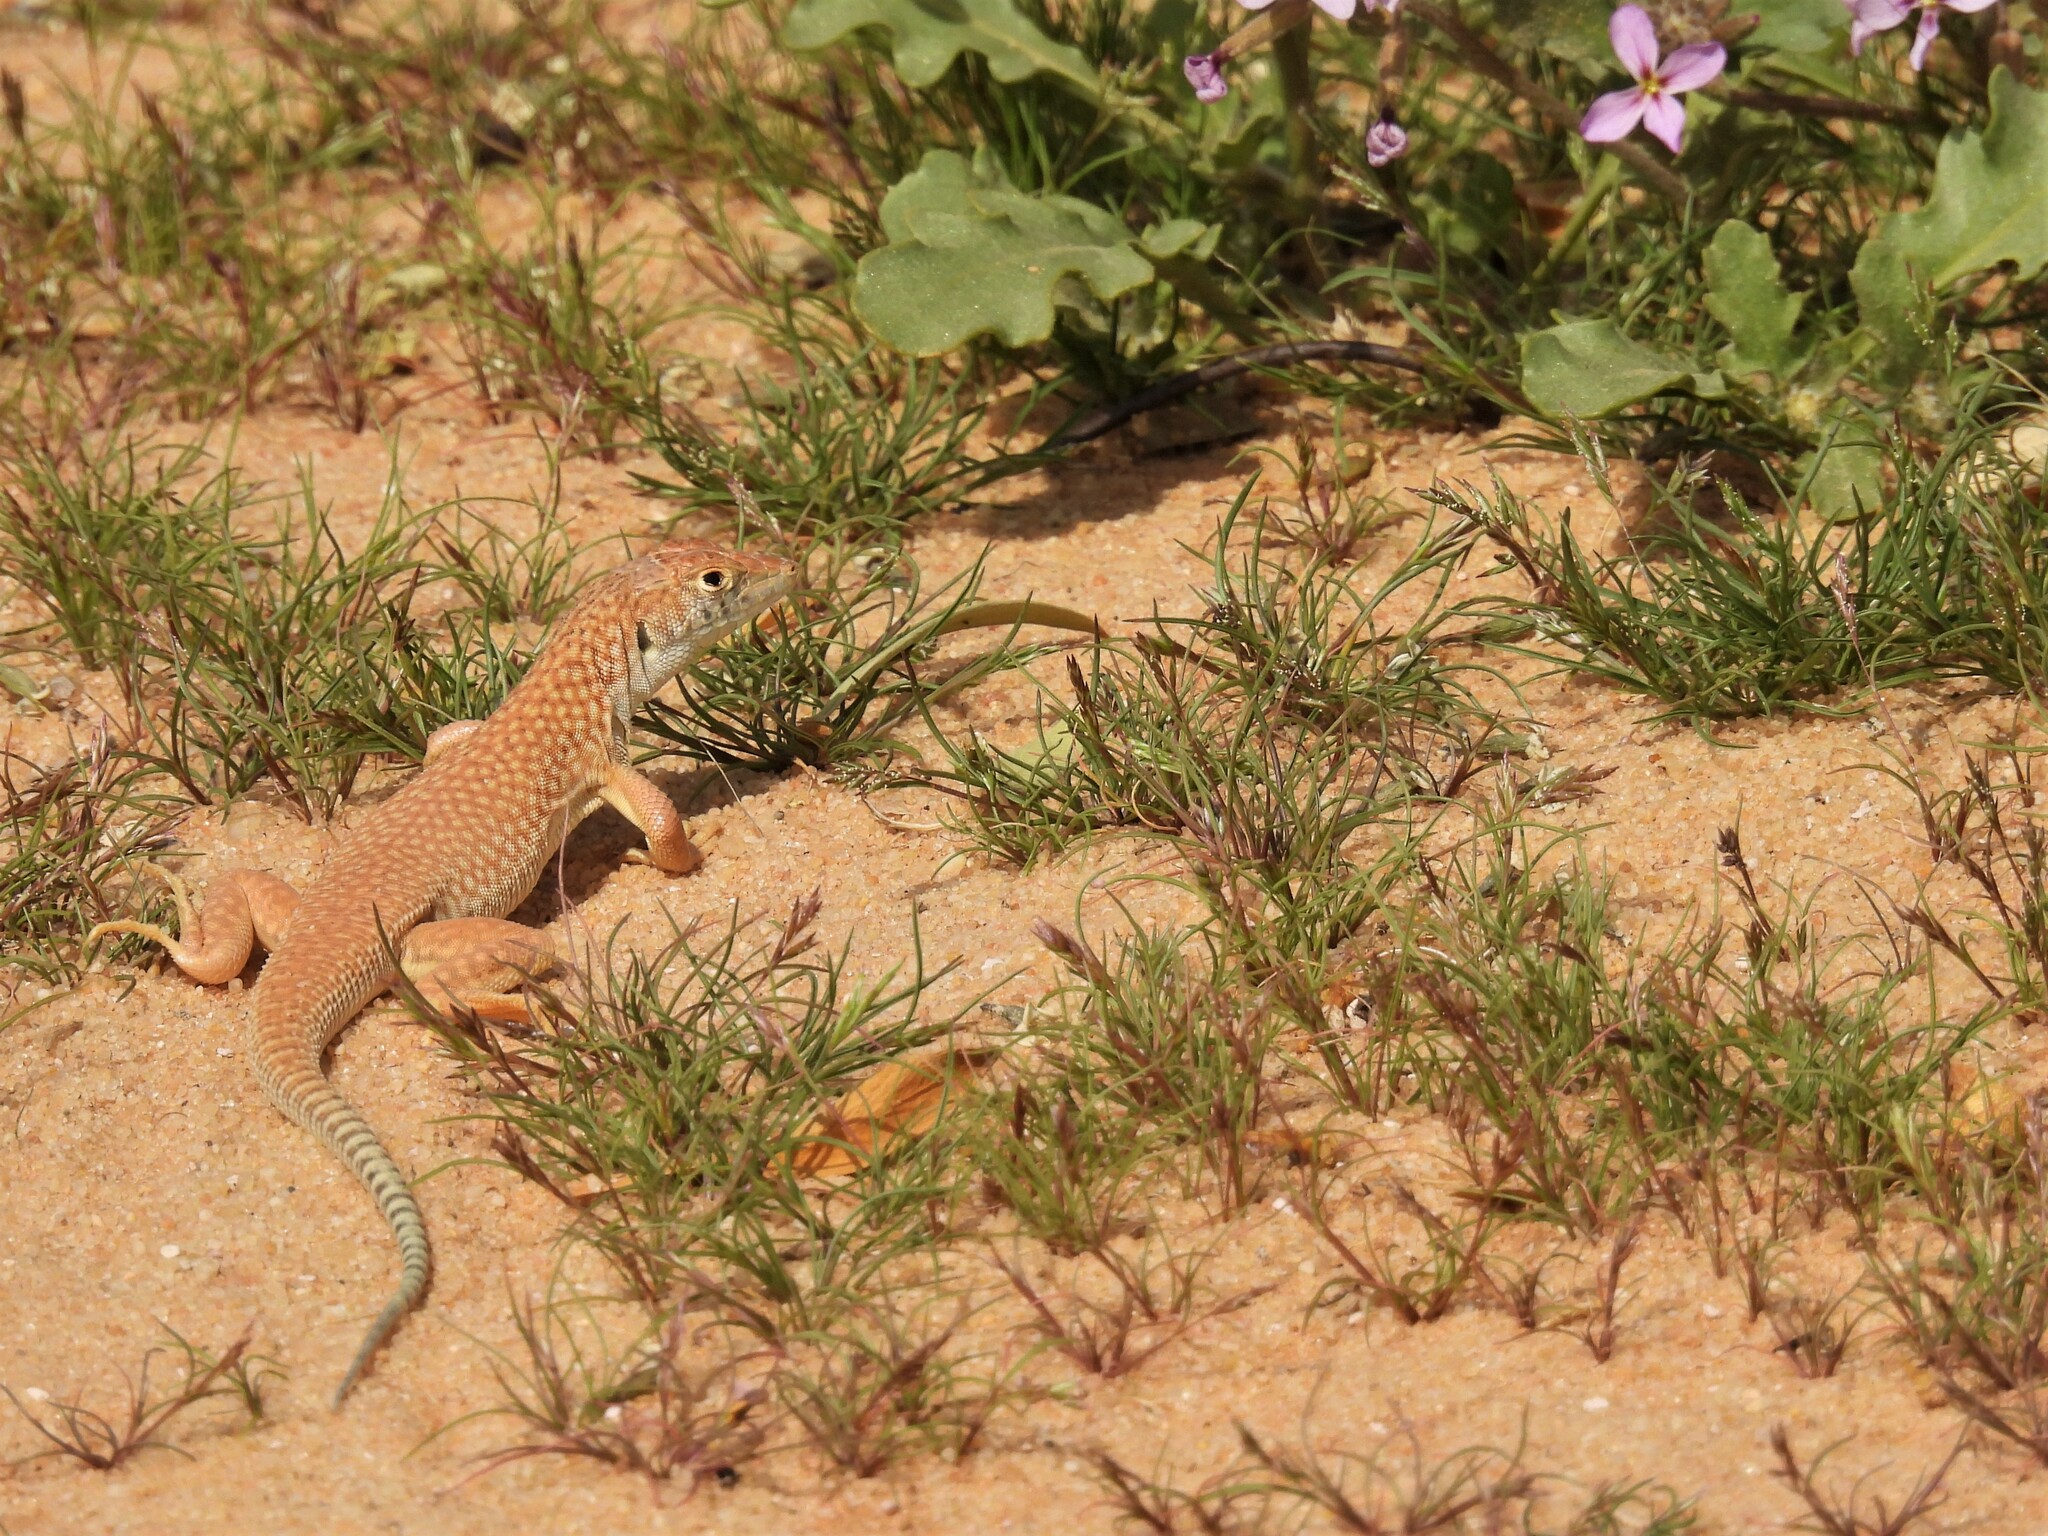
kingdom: Animalia
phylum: Chordata
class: Squamata
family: Lacertidae
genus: Acanthodactylus
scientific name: Acanthodactylus schmidti
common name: Schmidt's fringe-toed lizard
